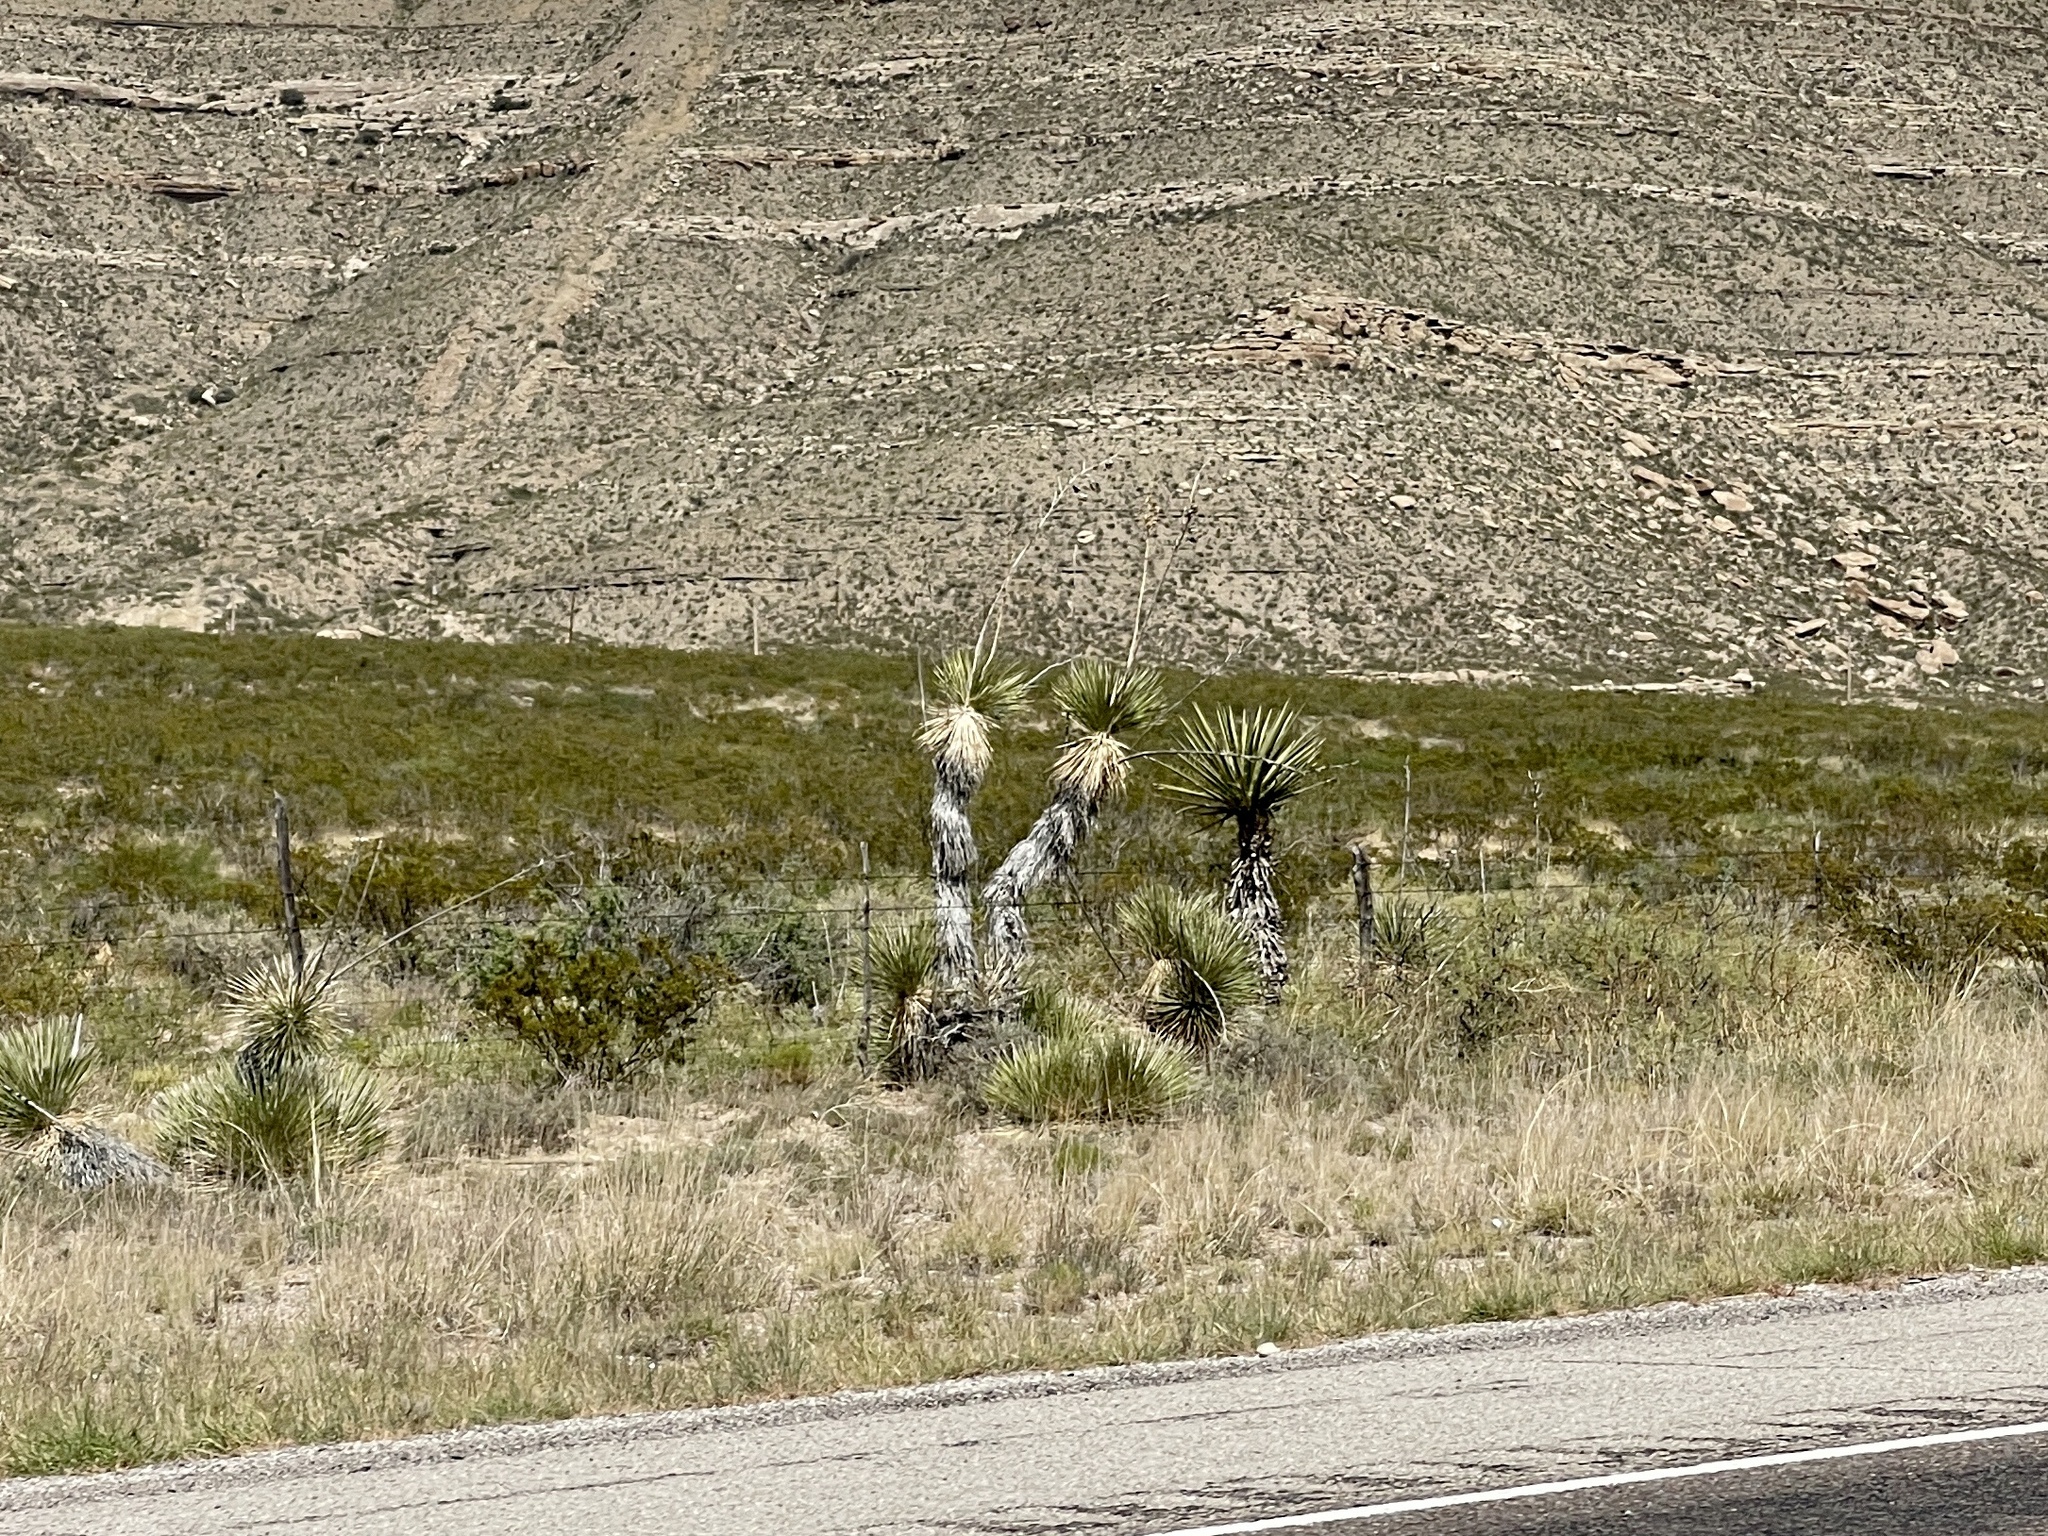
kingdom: Plantae
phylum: Tracheophyta
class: Liliopsida
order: Asparagales
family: Asparagaceae
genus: Yucca
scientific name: Yucca elata
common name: Palmella
